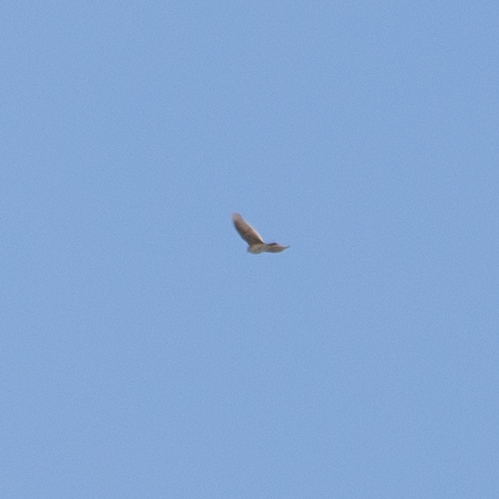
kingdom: Animalia
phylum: Chordata
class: Aves
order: Passeriformes
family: Alaudidae
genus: Alauda
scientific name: Alauda arvensis
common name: Eurasian skylark
